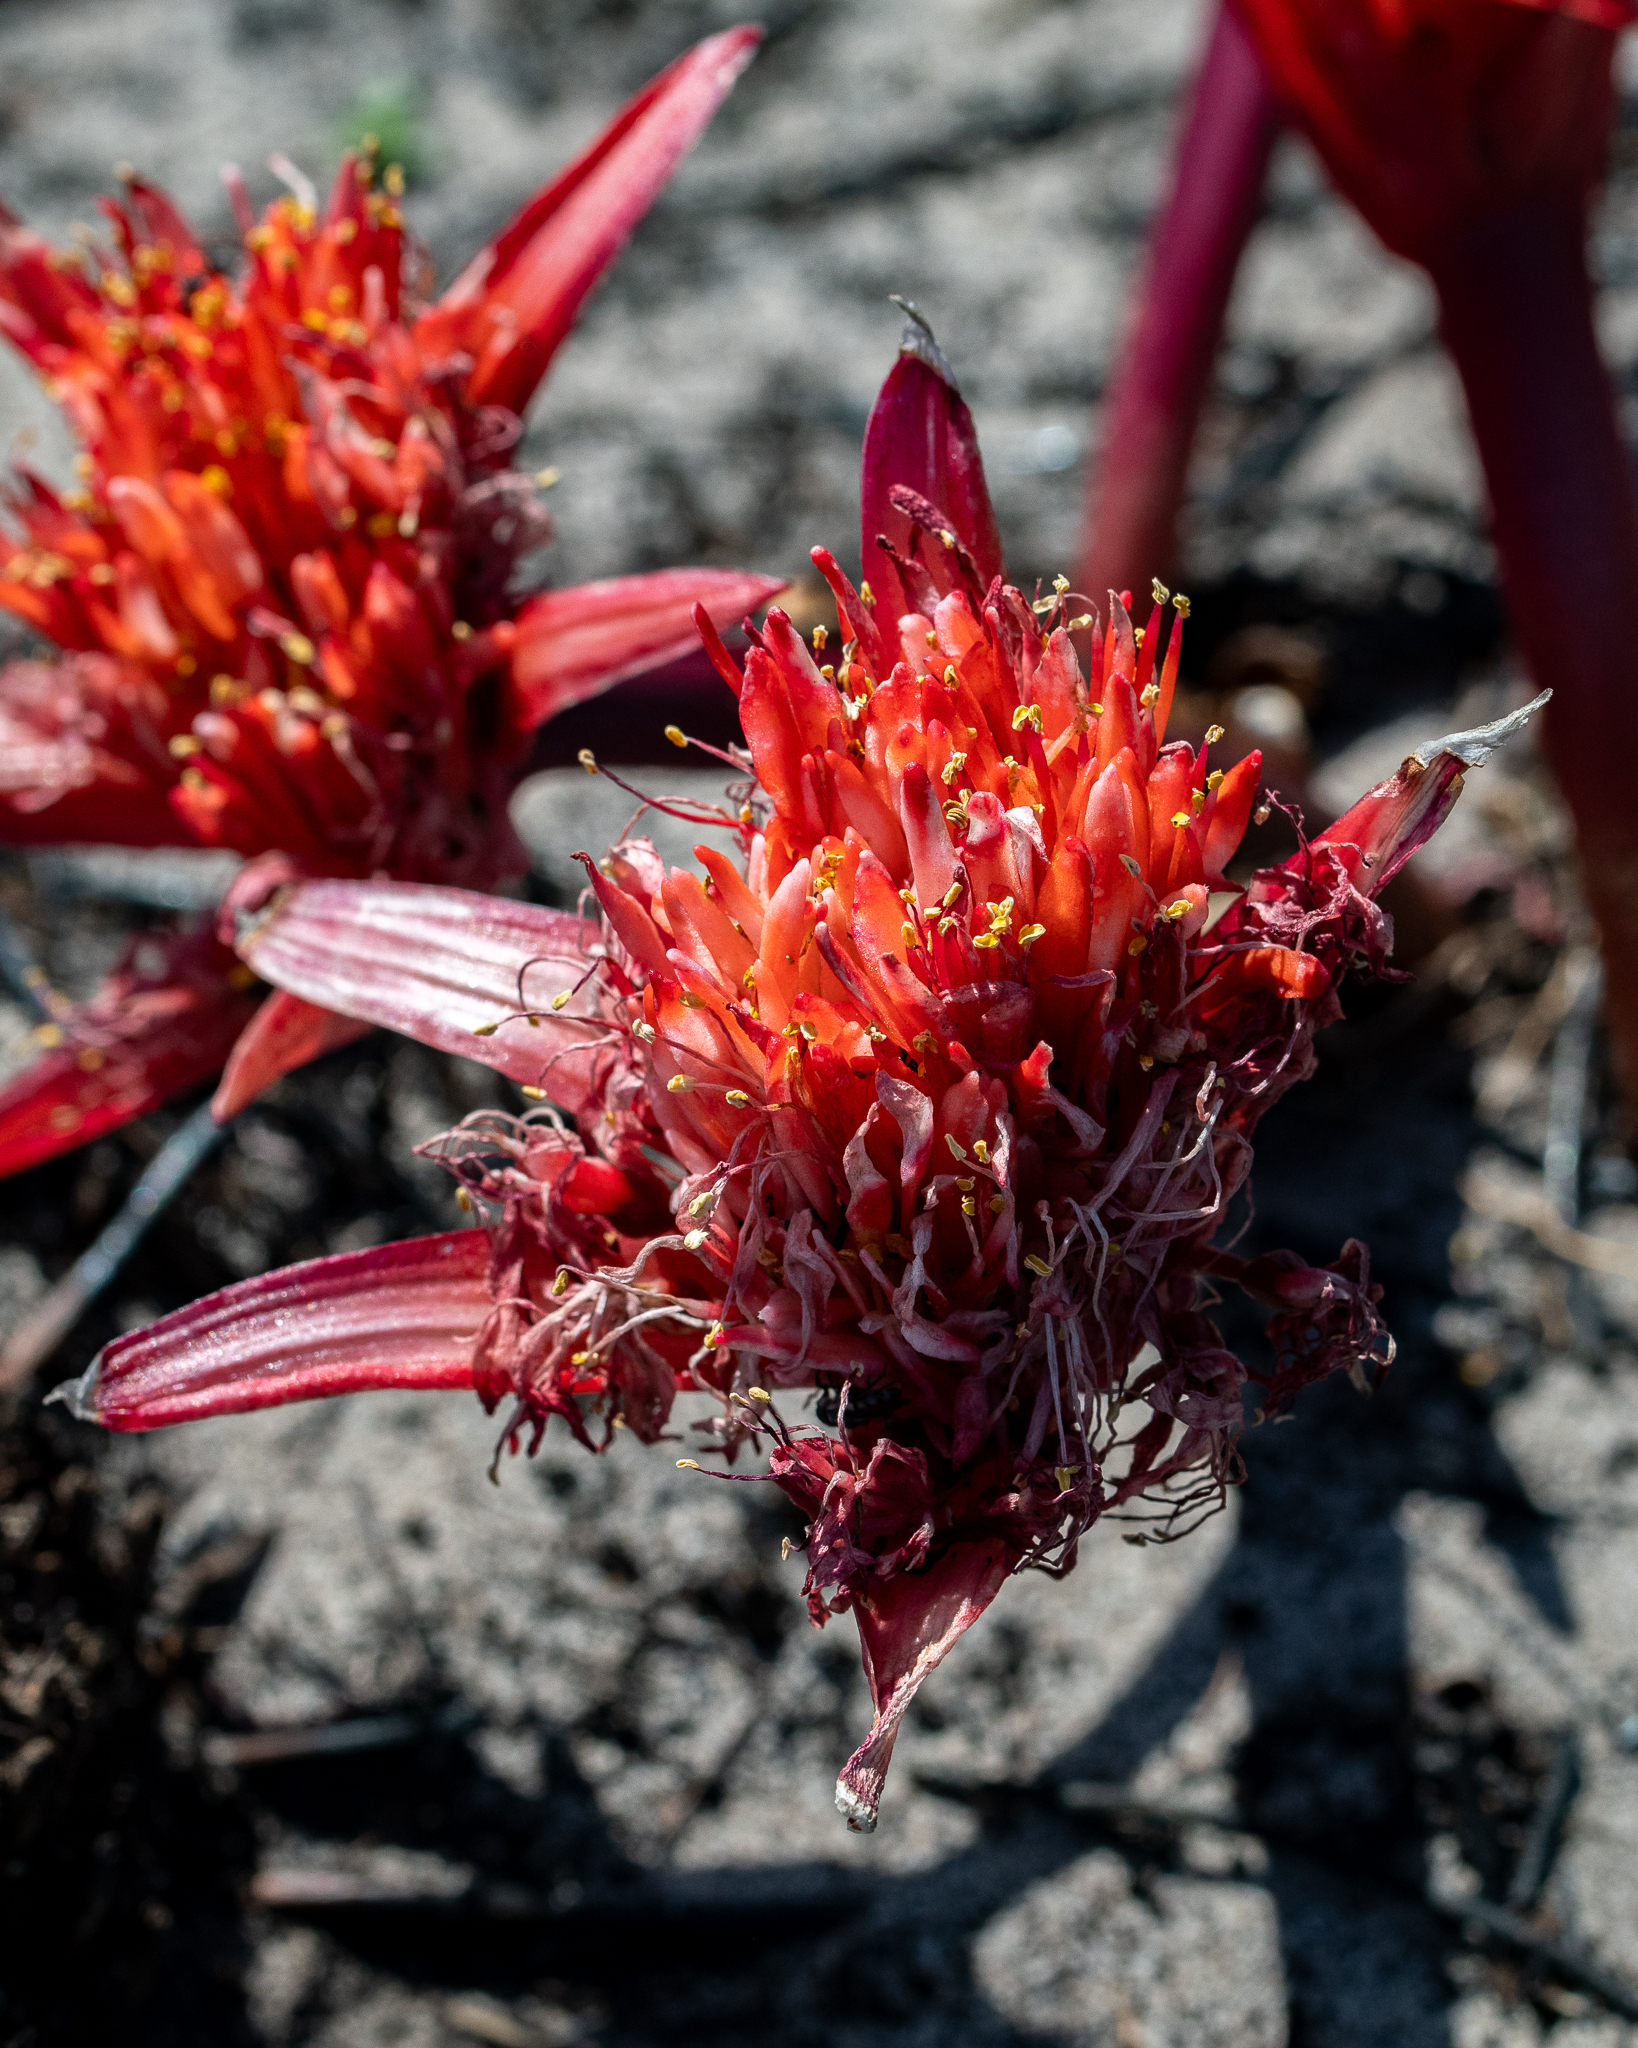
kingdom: Plantae
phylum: Tracheophyta
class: Liliopsida
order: Asparagales
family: Amaryllidaceae
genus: Haemanthus
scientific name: Haemanthus canaliculatus
